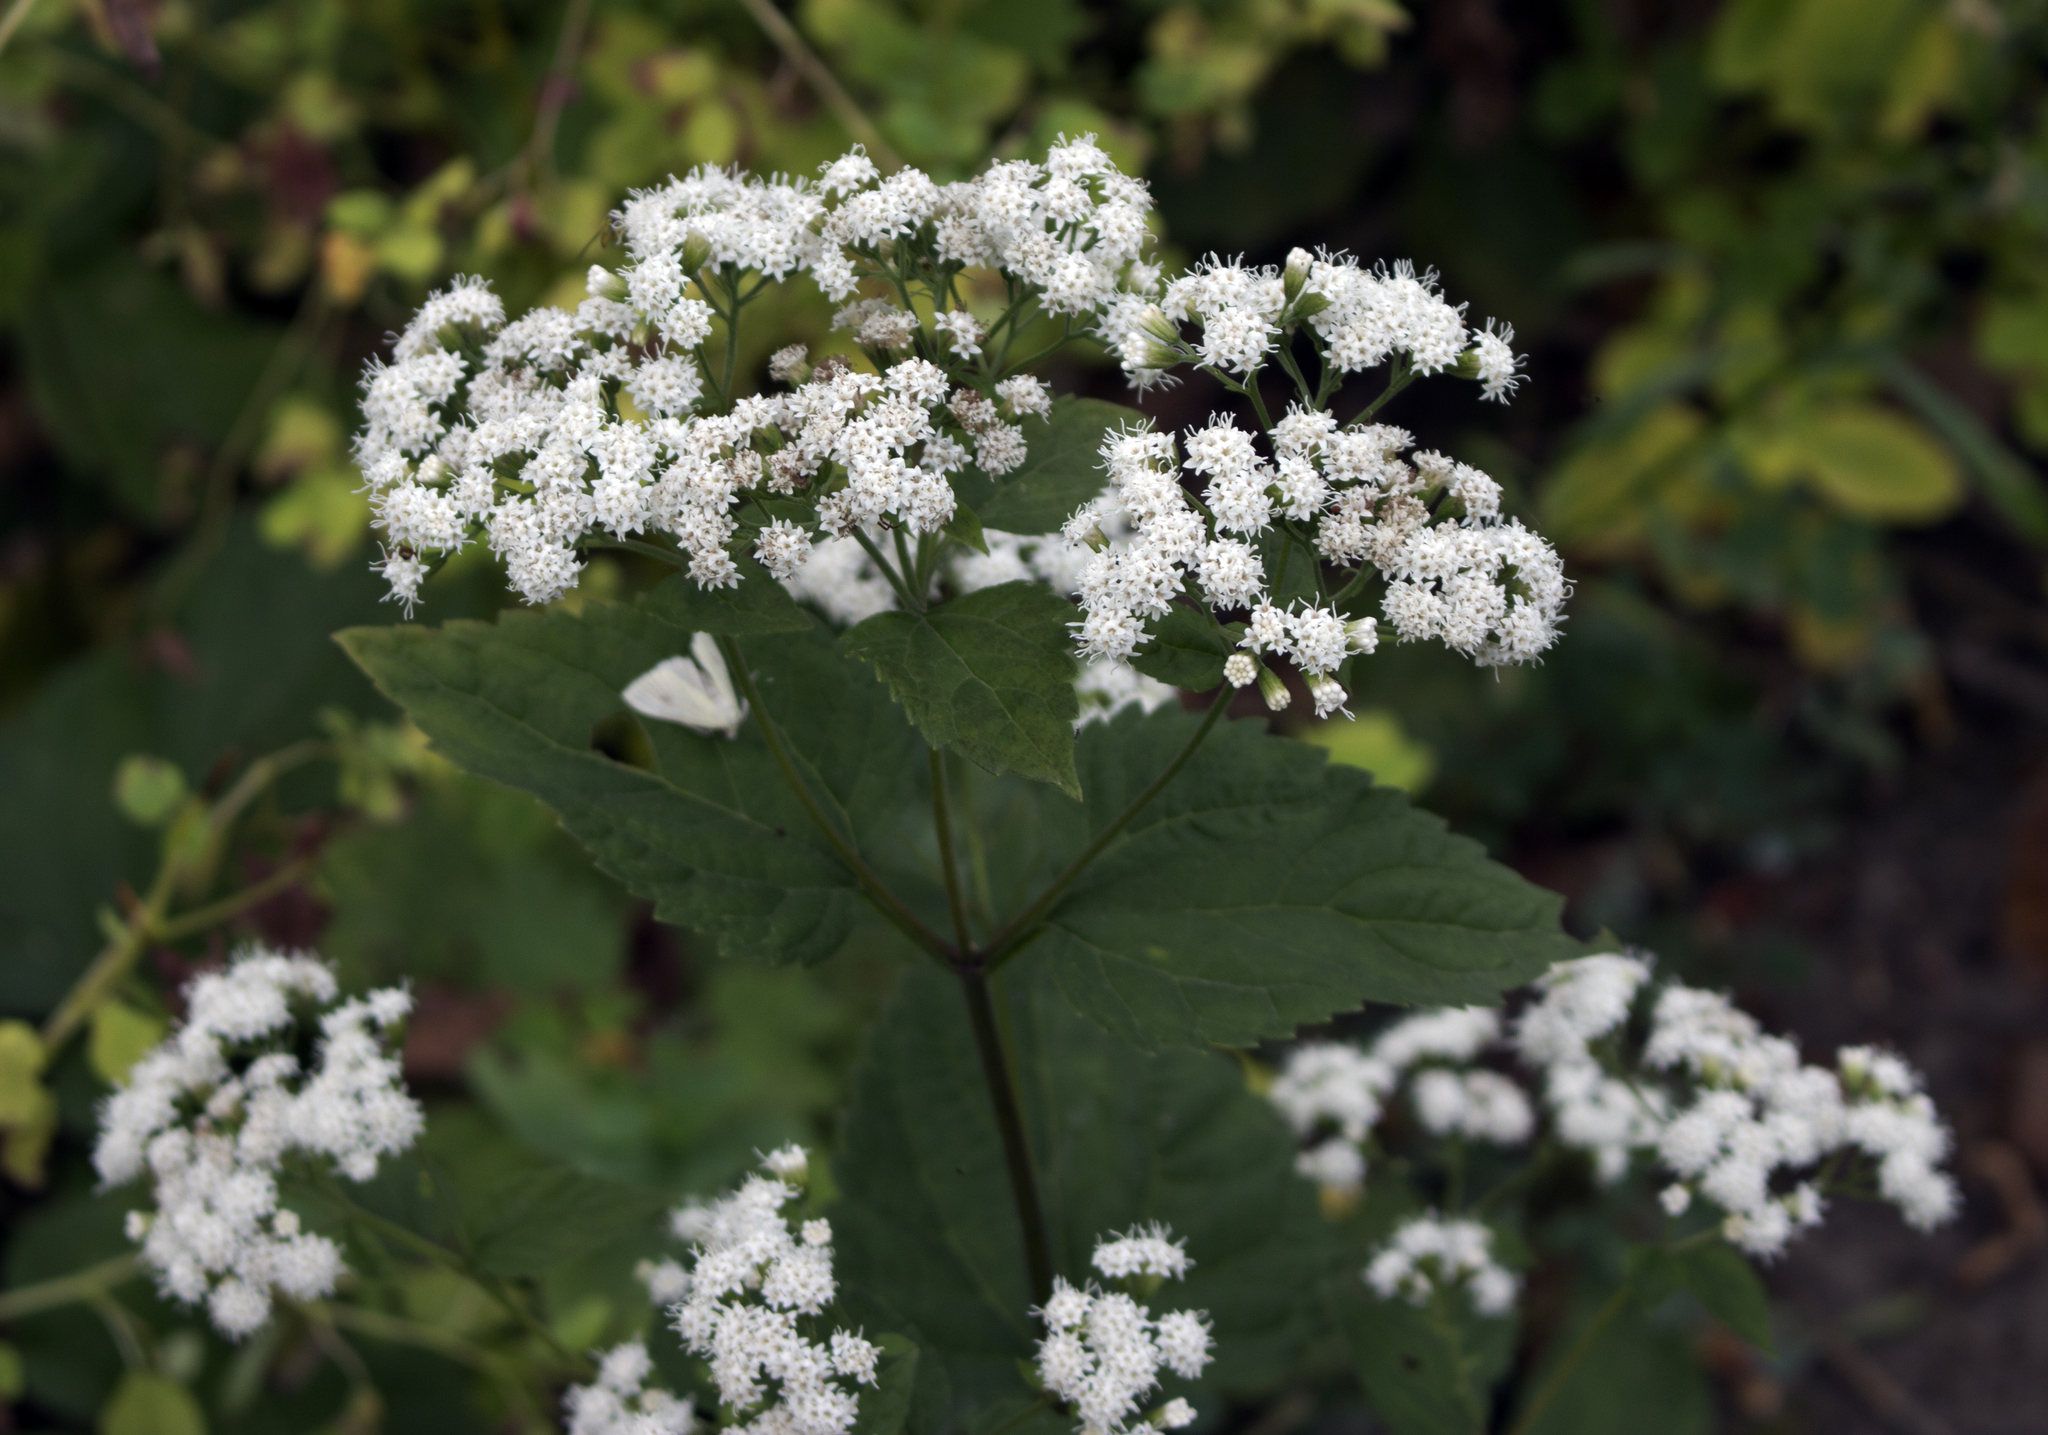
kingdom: Plantae
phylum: Tracheophyta
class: Magnoliopsida
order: Asterales
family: Asteraceae
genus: Ageratina
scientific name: Ageratina altissima
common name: White snakeroot
